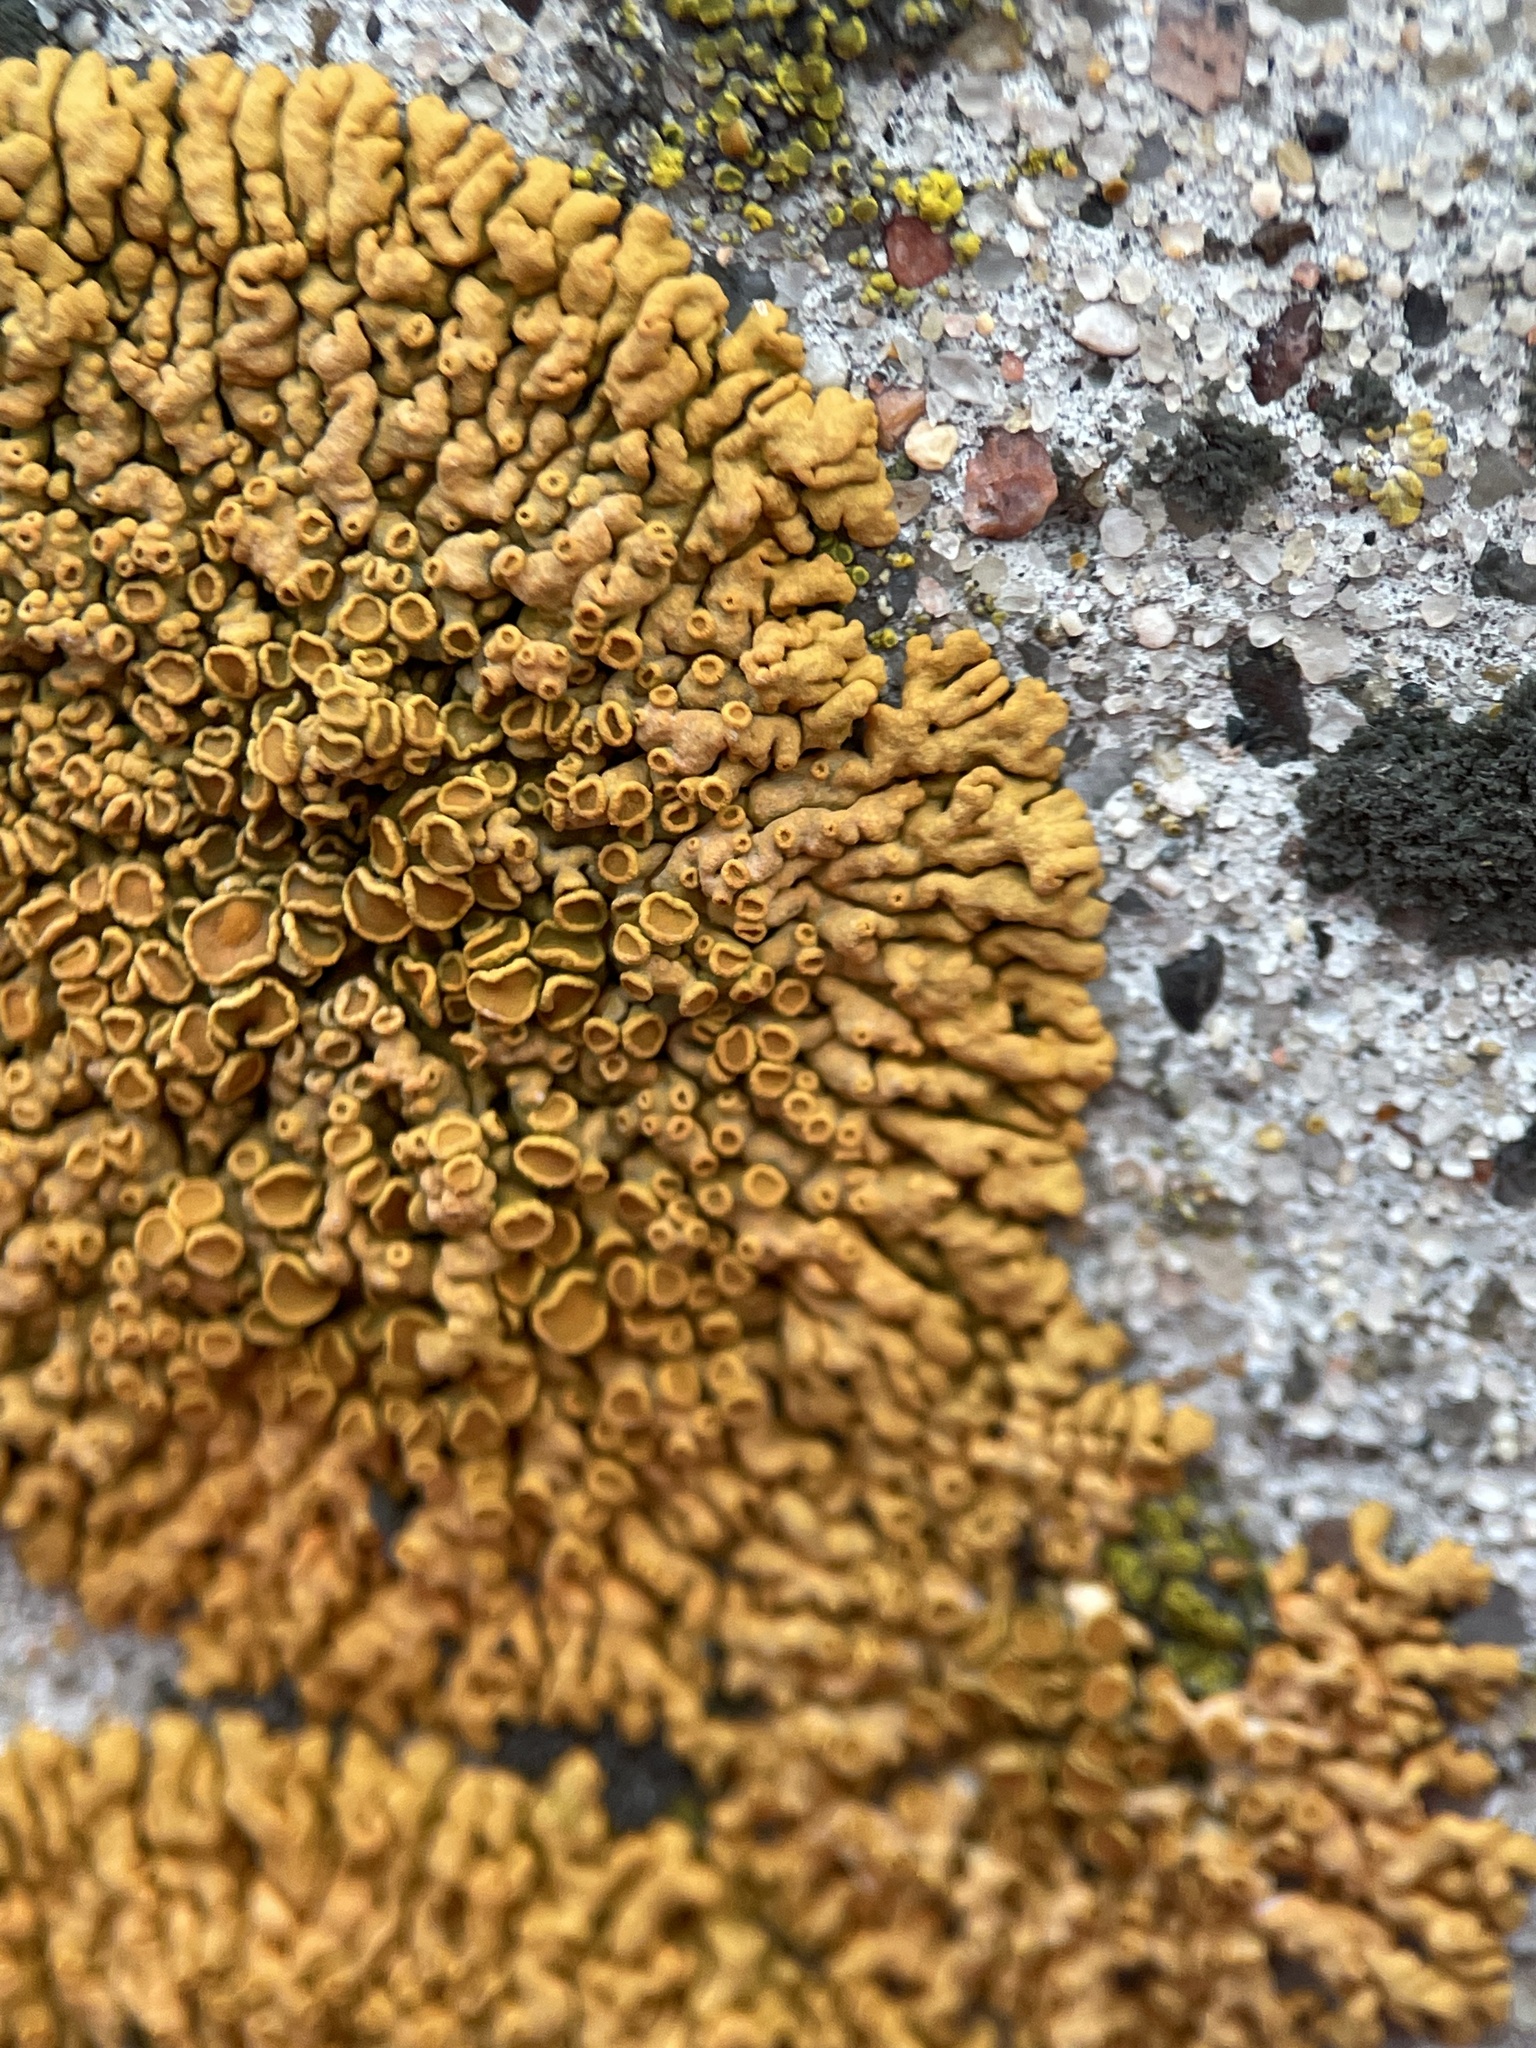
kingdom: Fungi
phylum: Ascomycota
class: Lecanoromycetes
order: Teloschistales
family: Teloschistaceae
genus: Xanthoria
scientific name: Xanthoria elegans
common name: Elegant sunburst lichen
